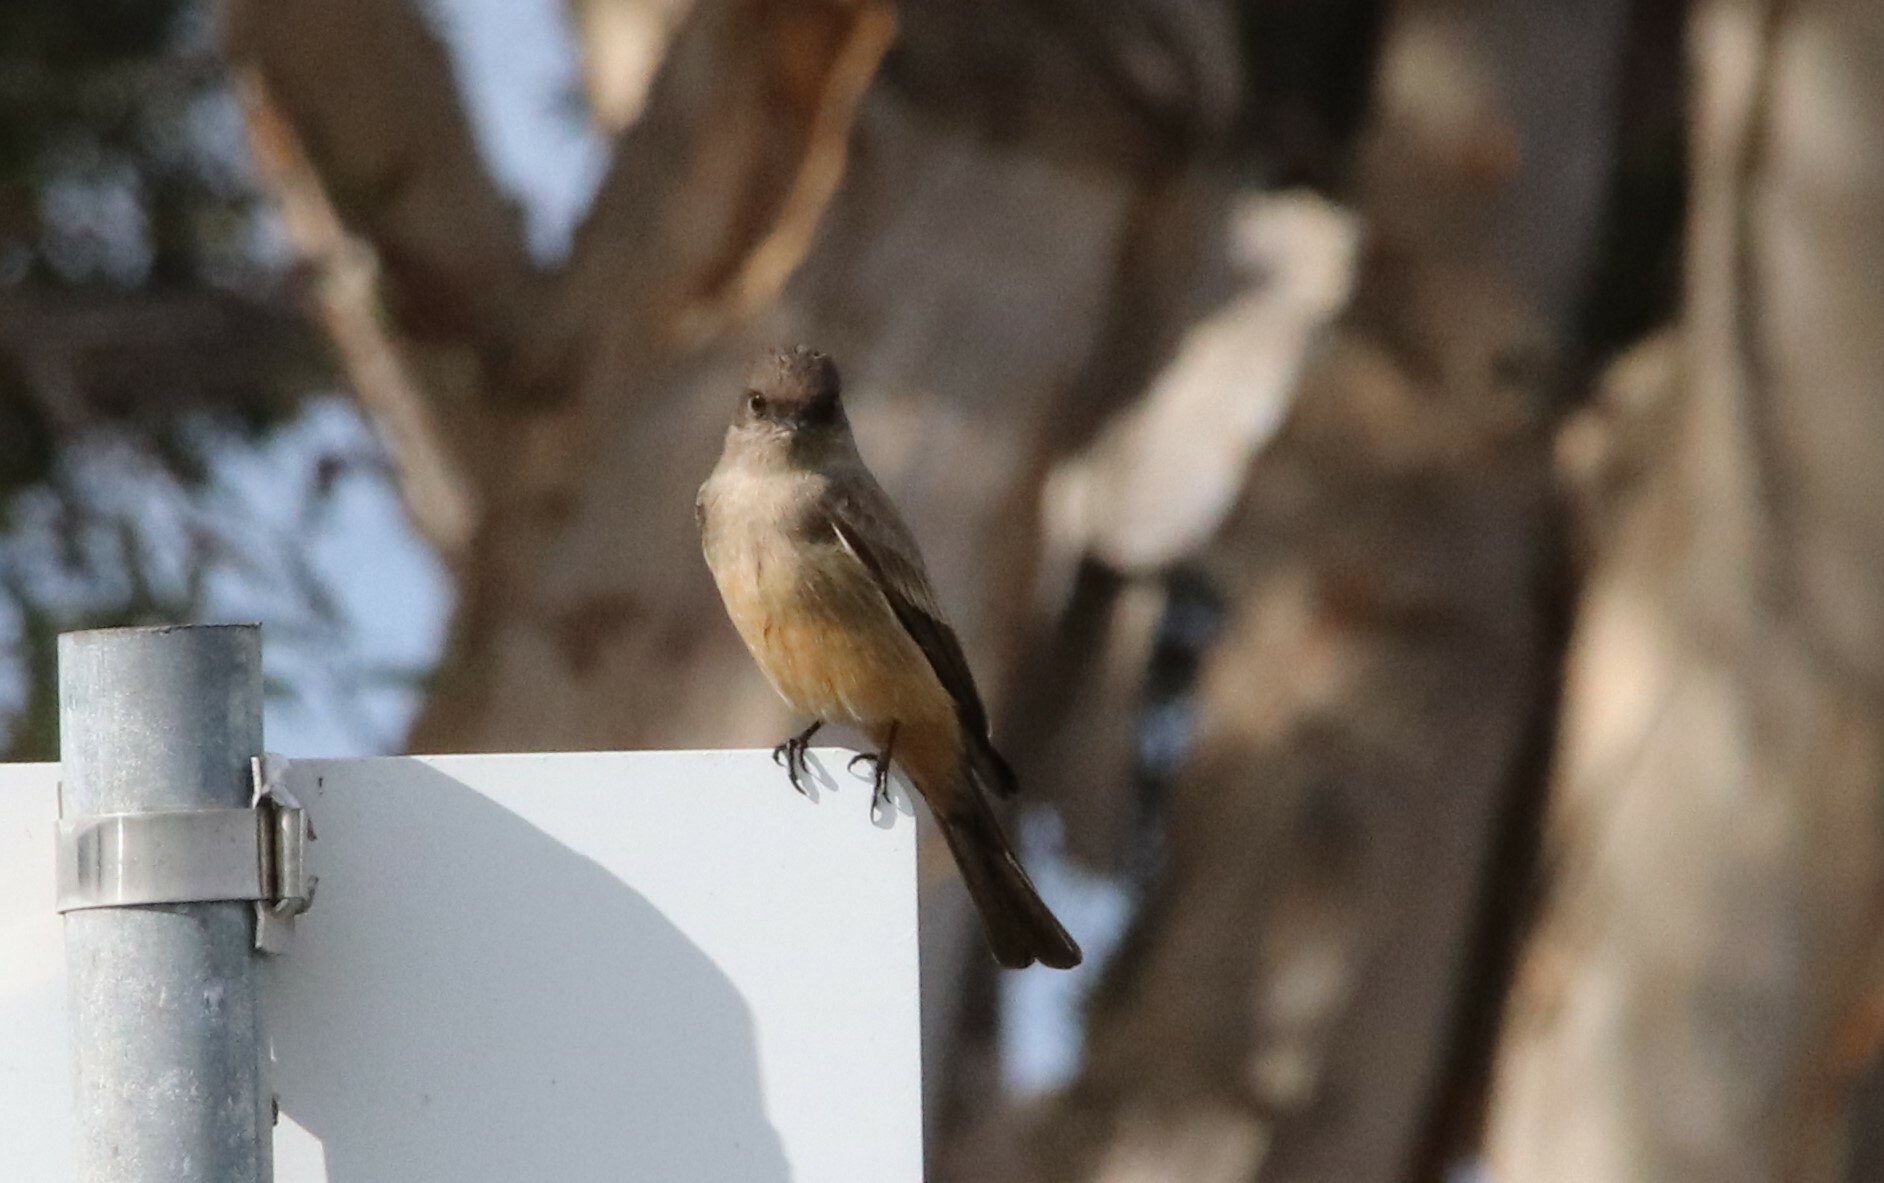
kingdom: Animalia
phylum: Chordata
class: Aves
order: Passeriformes
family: Tyrannidae
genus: Sayornis
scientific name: Sayornis saya
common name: Say's phoebe
